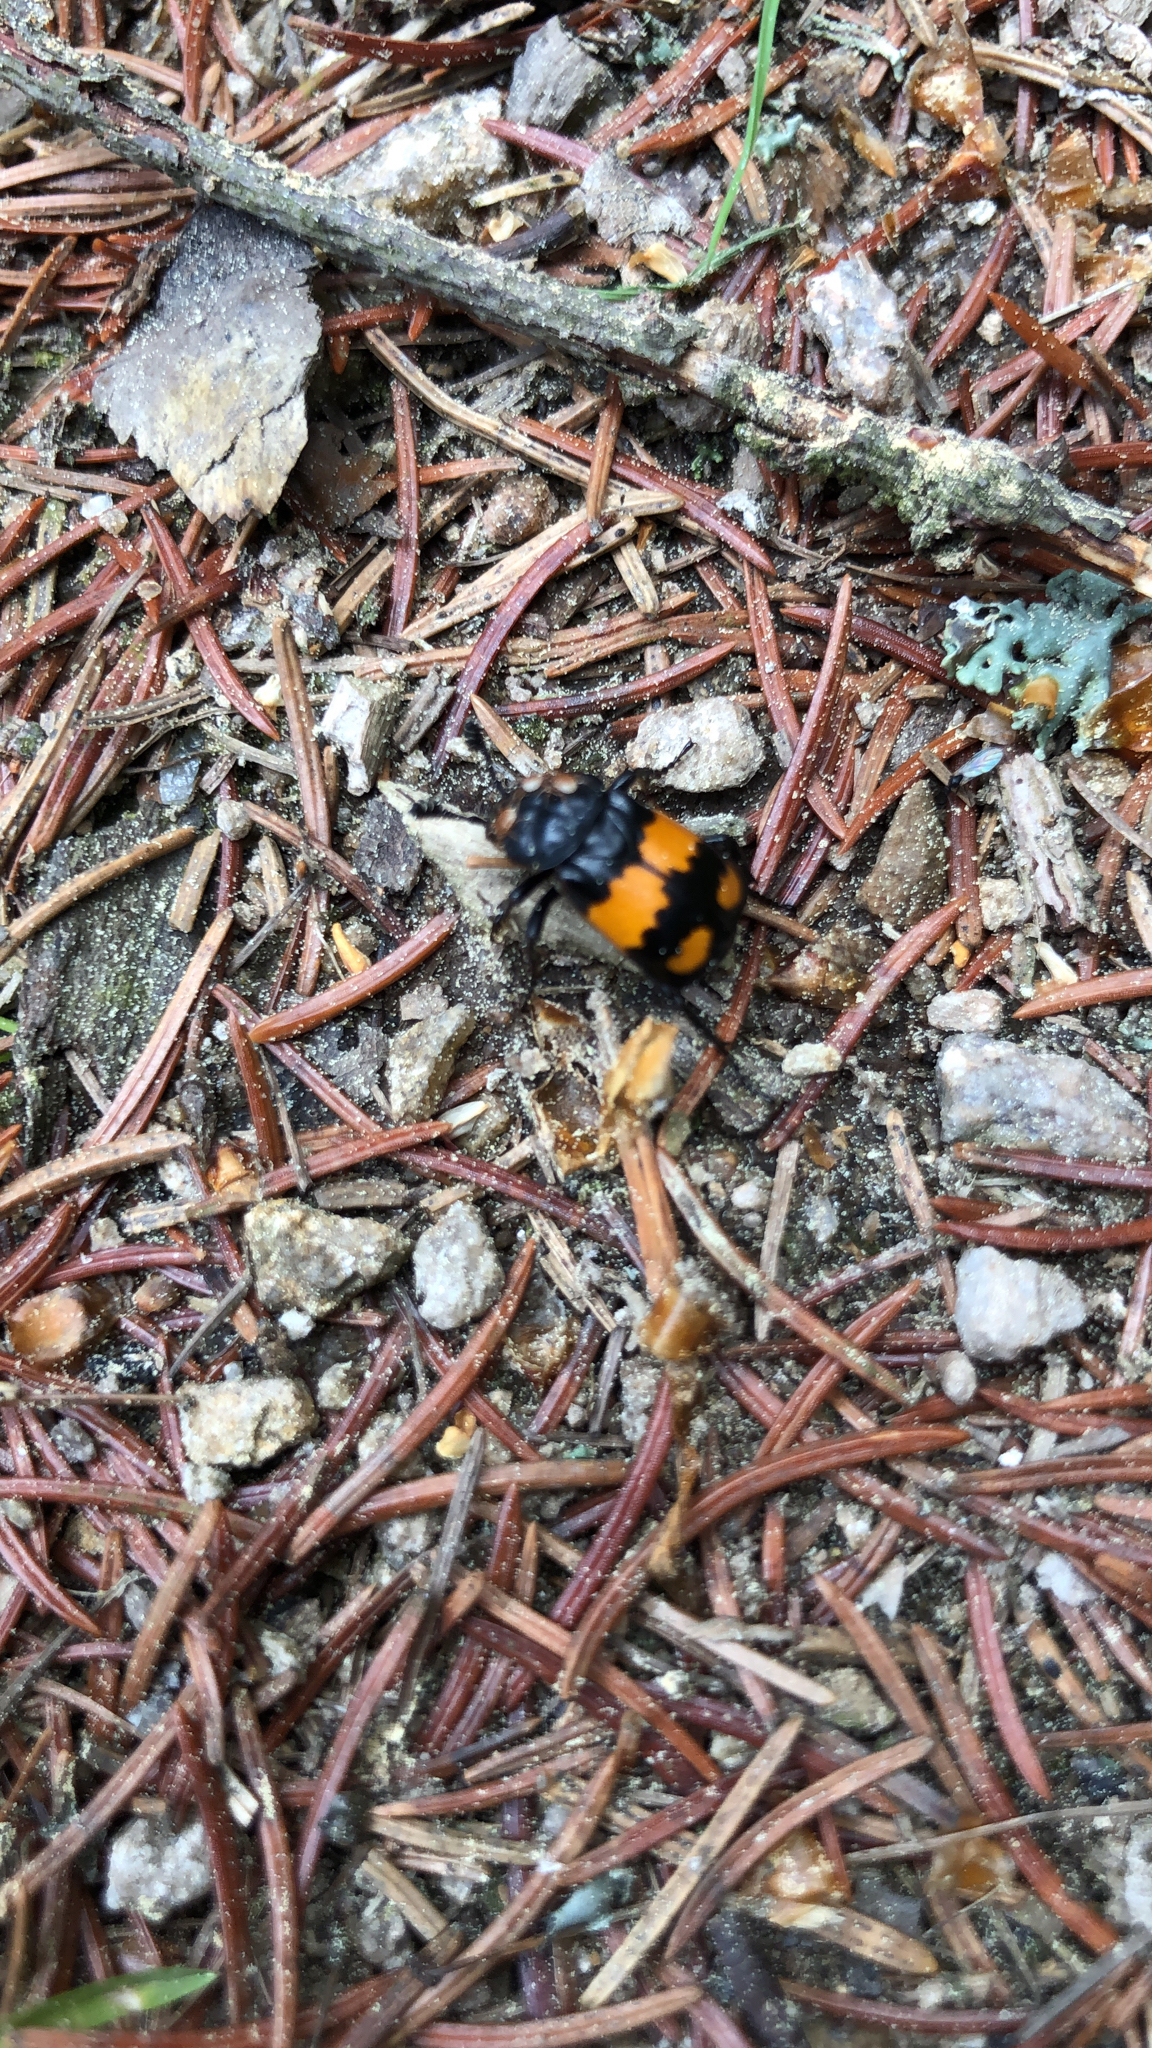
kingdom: Animalia
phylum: Arthropoda
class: Insecta
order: Coleoptera
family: Staphylinidae
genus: Nicrophorus
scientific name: Nicrophorus vespilloides
